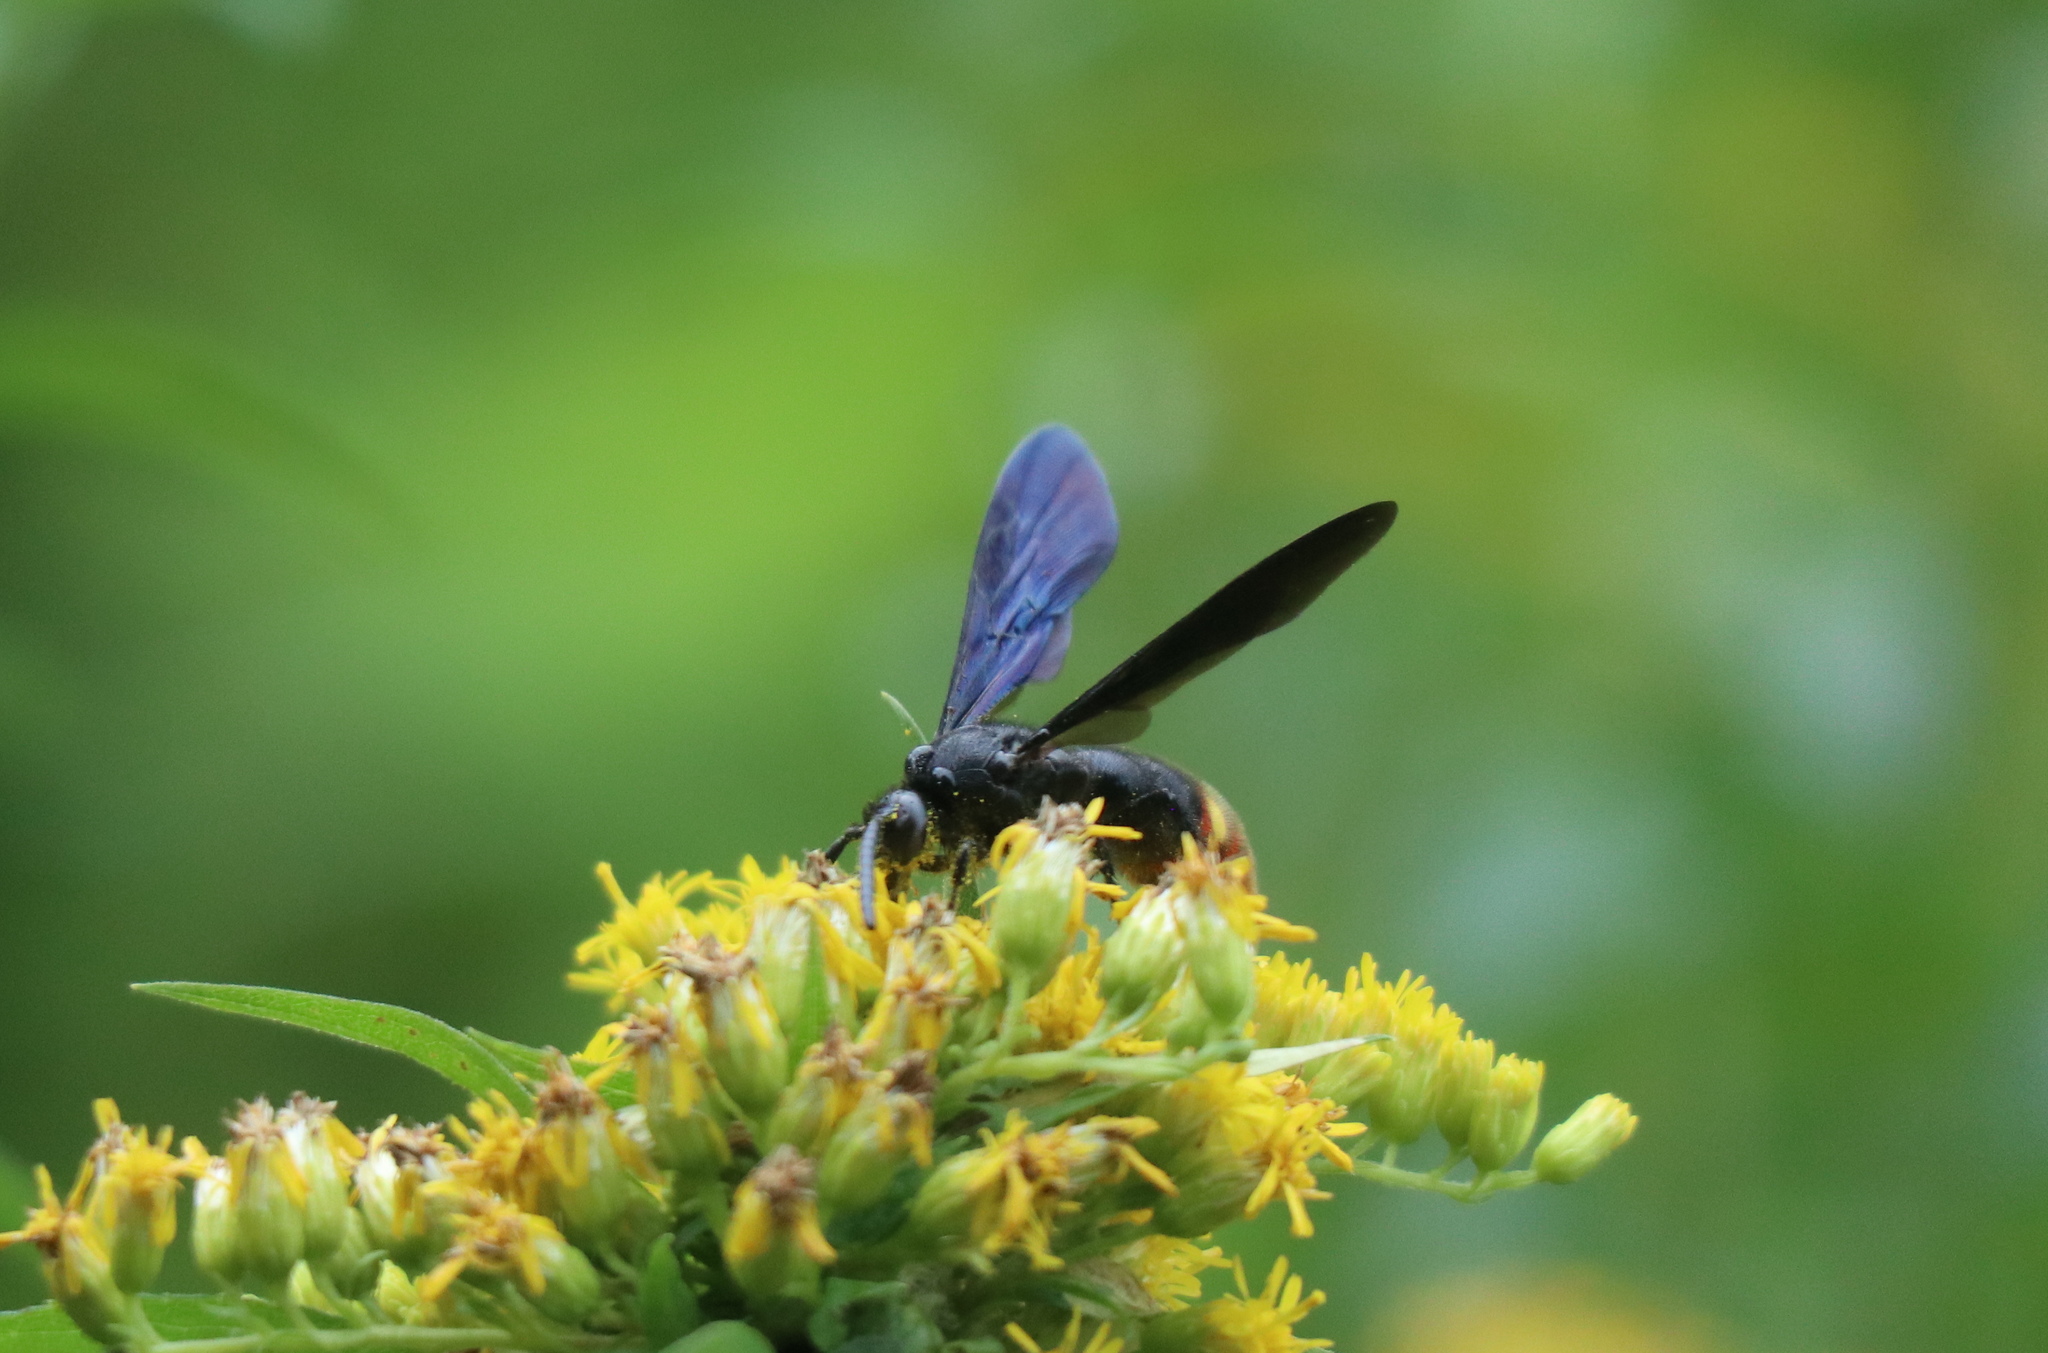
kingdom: Animalia
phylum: Arthropoda
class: Insecta
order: Hymenoptera
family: Scoliidae
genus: Scolia
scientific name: Scolia dubia
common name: Blue-winged scoliid wasp
